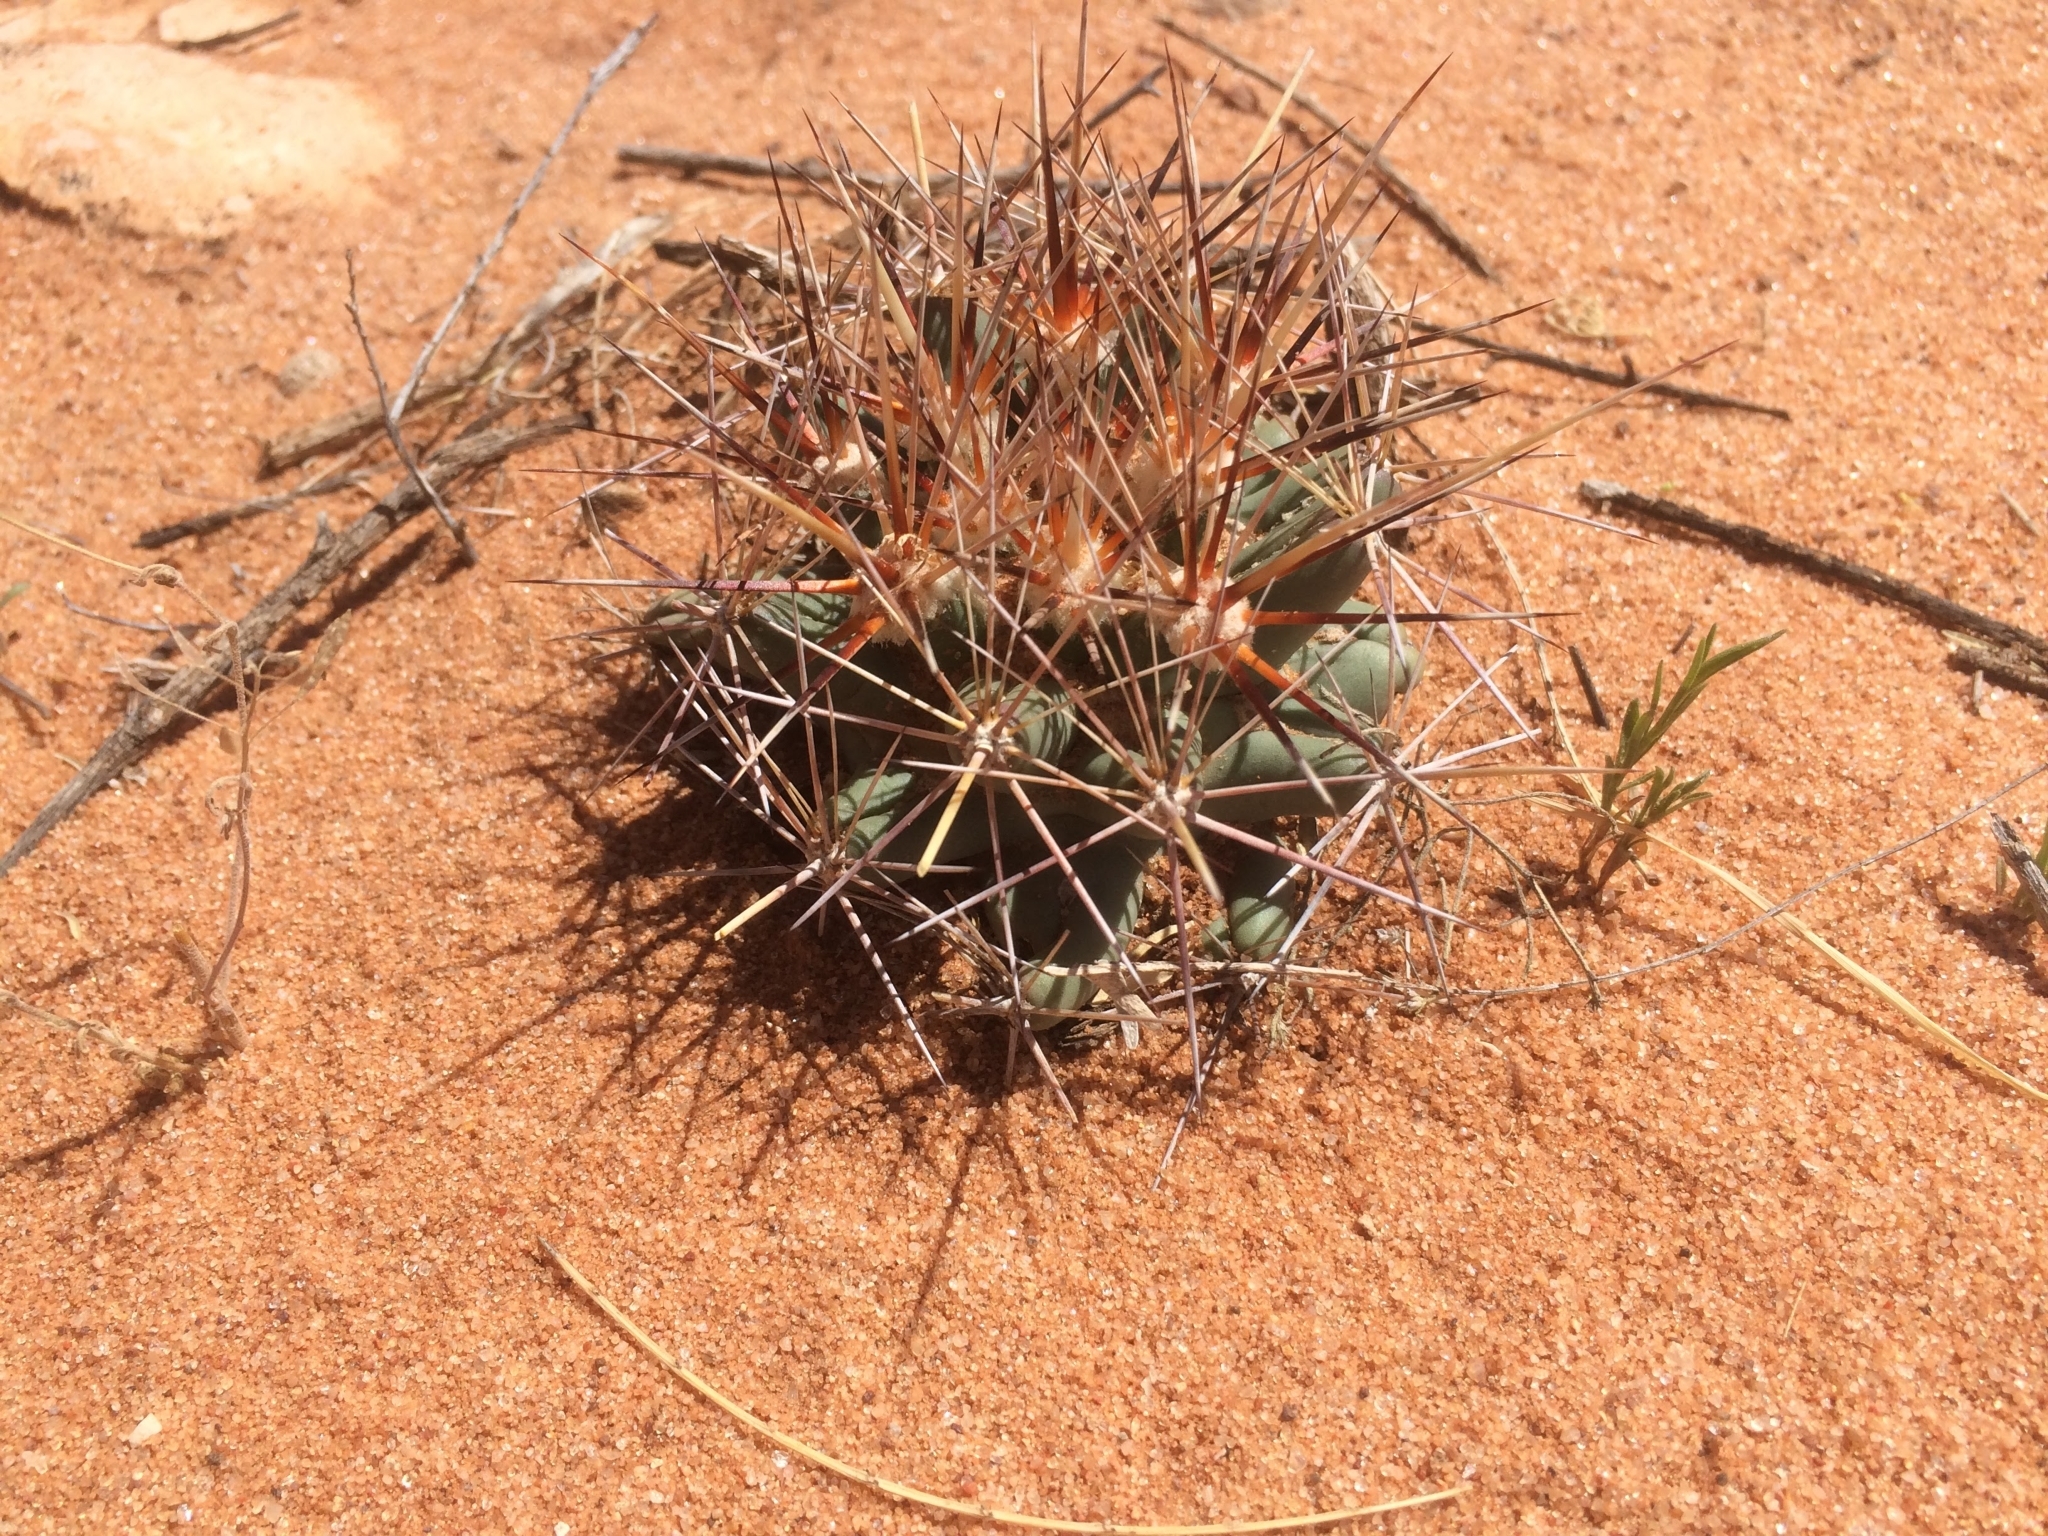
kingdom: Plantae
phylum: Tracheophyta
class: Magnoliopsida
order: Caryophyllales
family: Cactaceae
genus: Coryphantha
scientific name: Coryphantha robustispina
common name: Pima pineapple cactus
